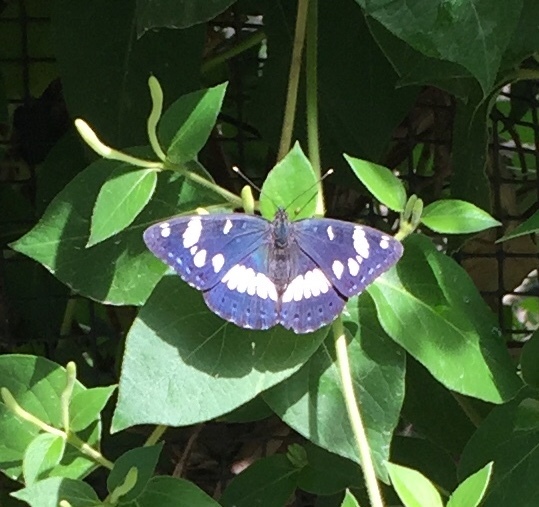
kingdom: Animalia
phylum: Arthropoda
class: Insecta
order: Lepidoptera
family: Nymphalidae
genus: Limenitis
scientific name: Limenitis reducta
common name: Southern white admiral
